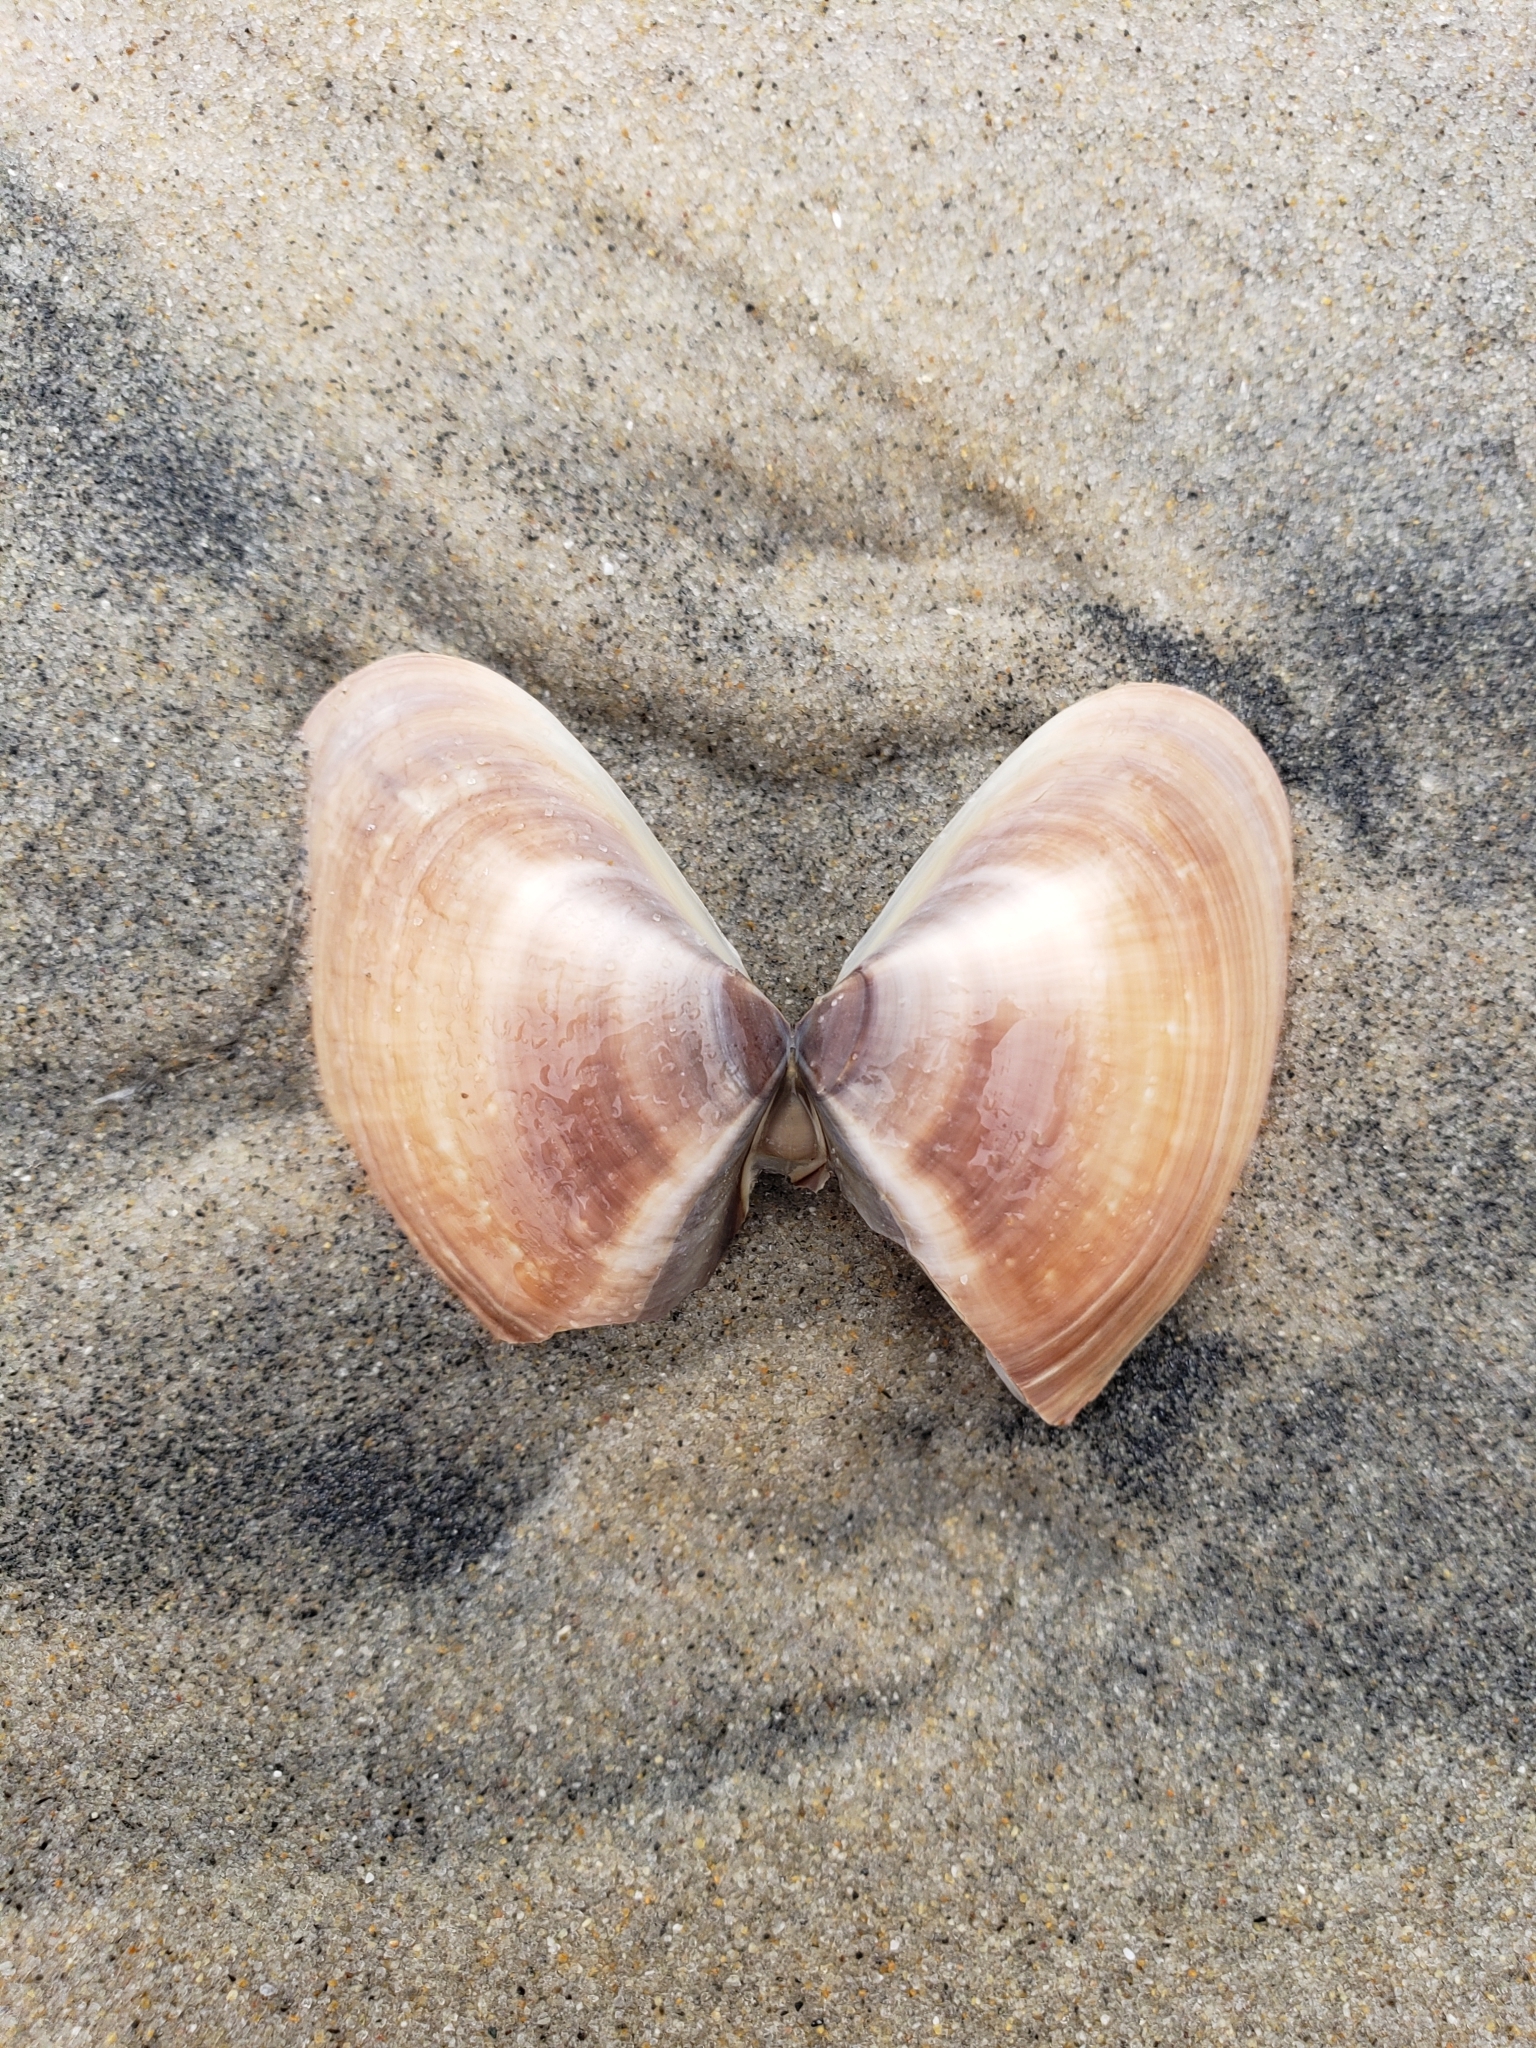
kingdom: Animalia
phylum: Mollusca
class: Bivalvia
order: Venerida
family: Veneridae
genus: Tivela
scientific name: Tivela stultorum
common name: Pismo clam
